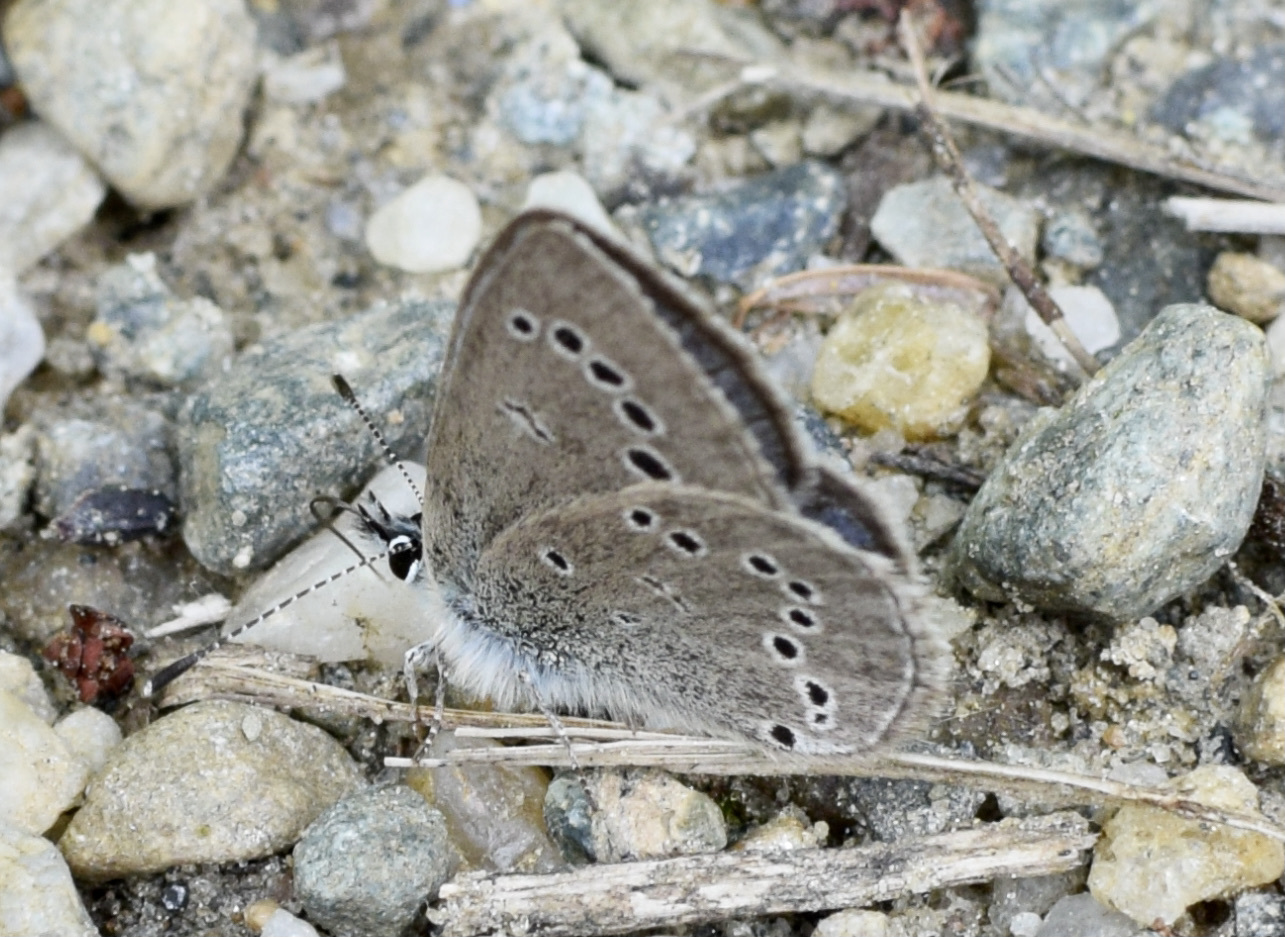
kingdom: Animalia
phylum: Arthropoda
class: Insecta
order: Lepidoptera
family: Lycaenidae
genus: Glaucopsyche
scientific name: Glaucopsyche lygdamus
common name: Silvery blue
